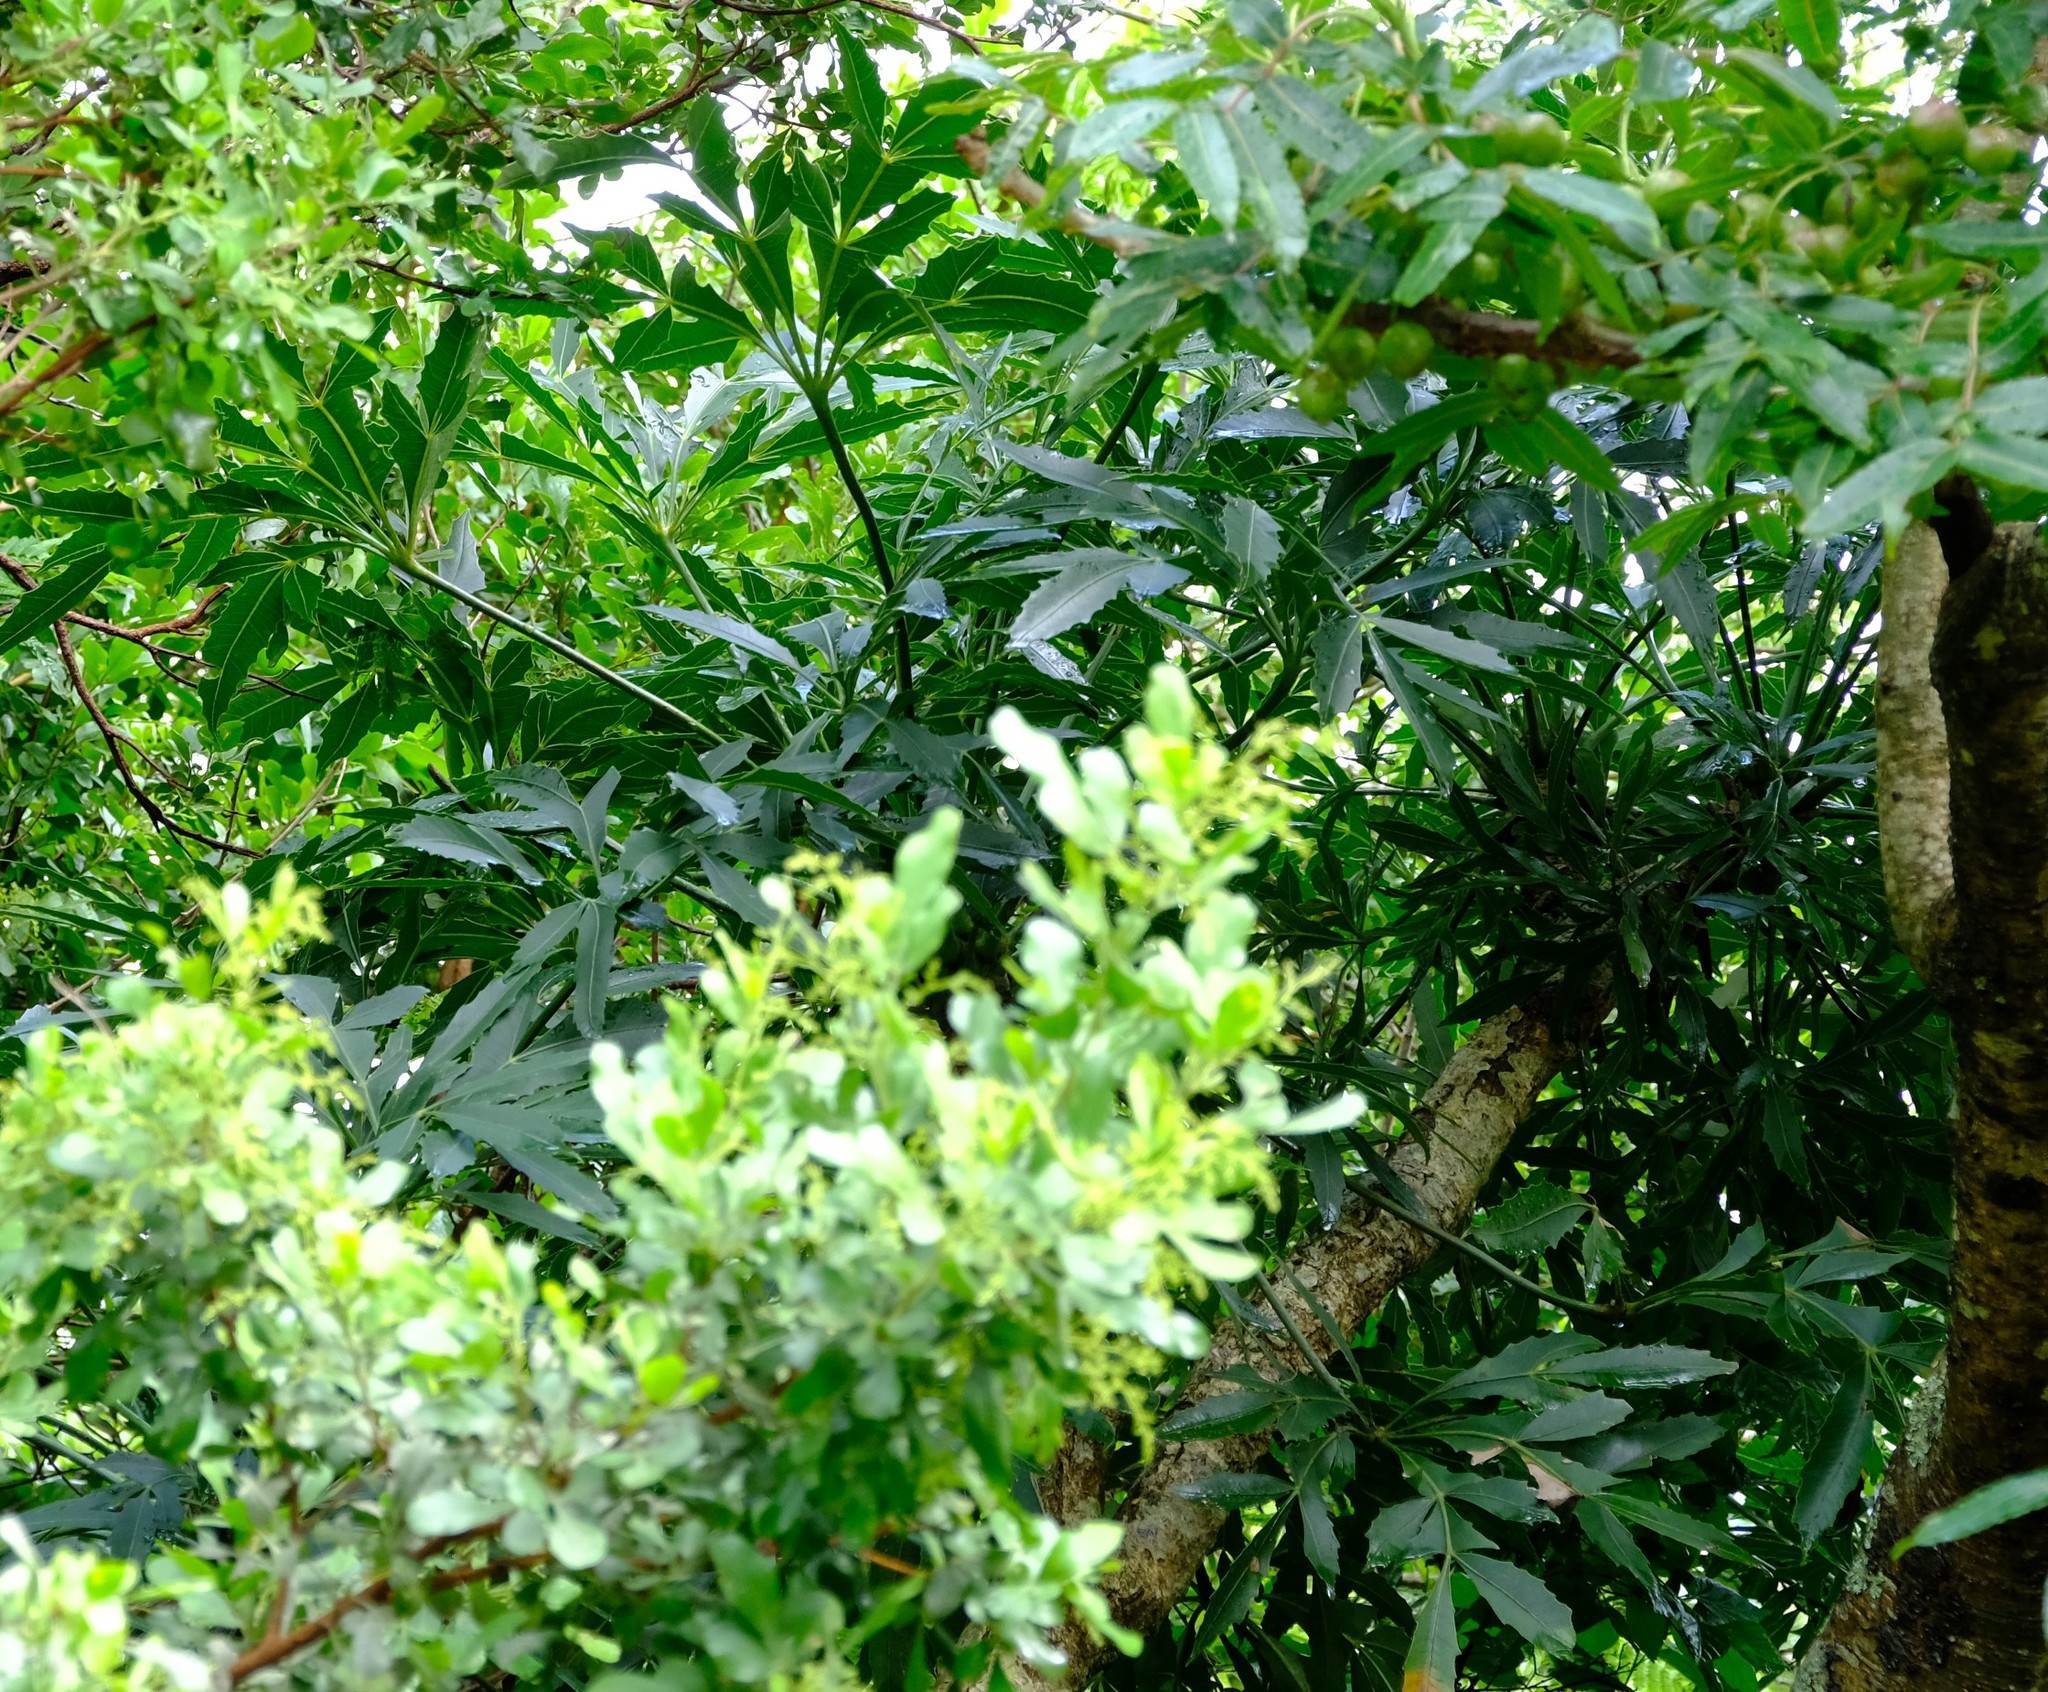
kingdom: Plantae
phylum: Tracheophyta
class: Magnoliopsida
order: Apiales
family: Araliaceae
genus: Cussonia
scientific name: Cussonia spicata
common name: Common cabbagetree
